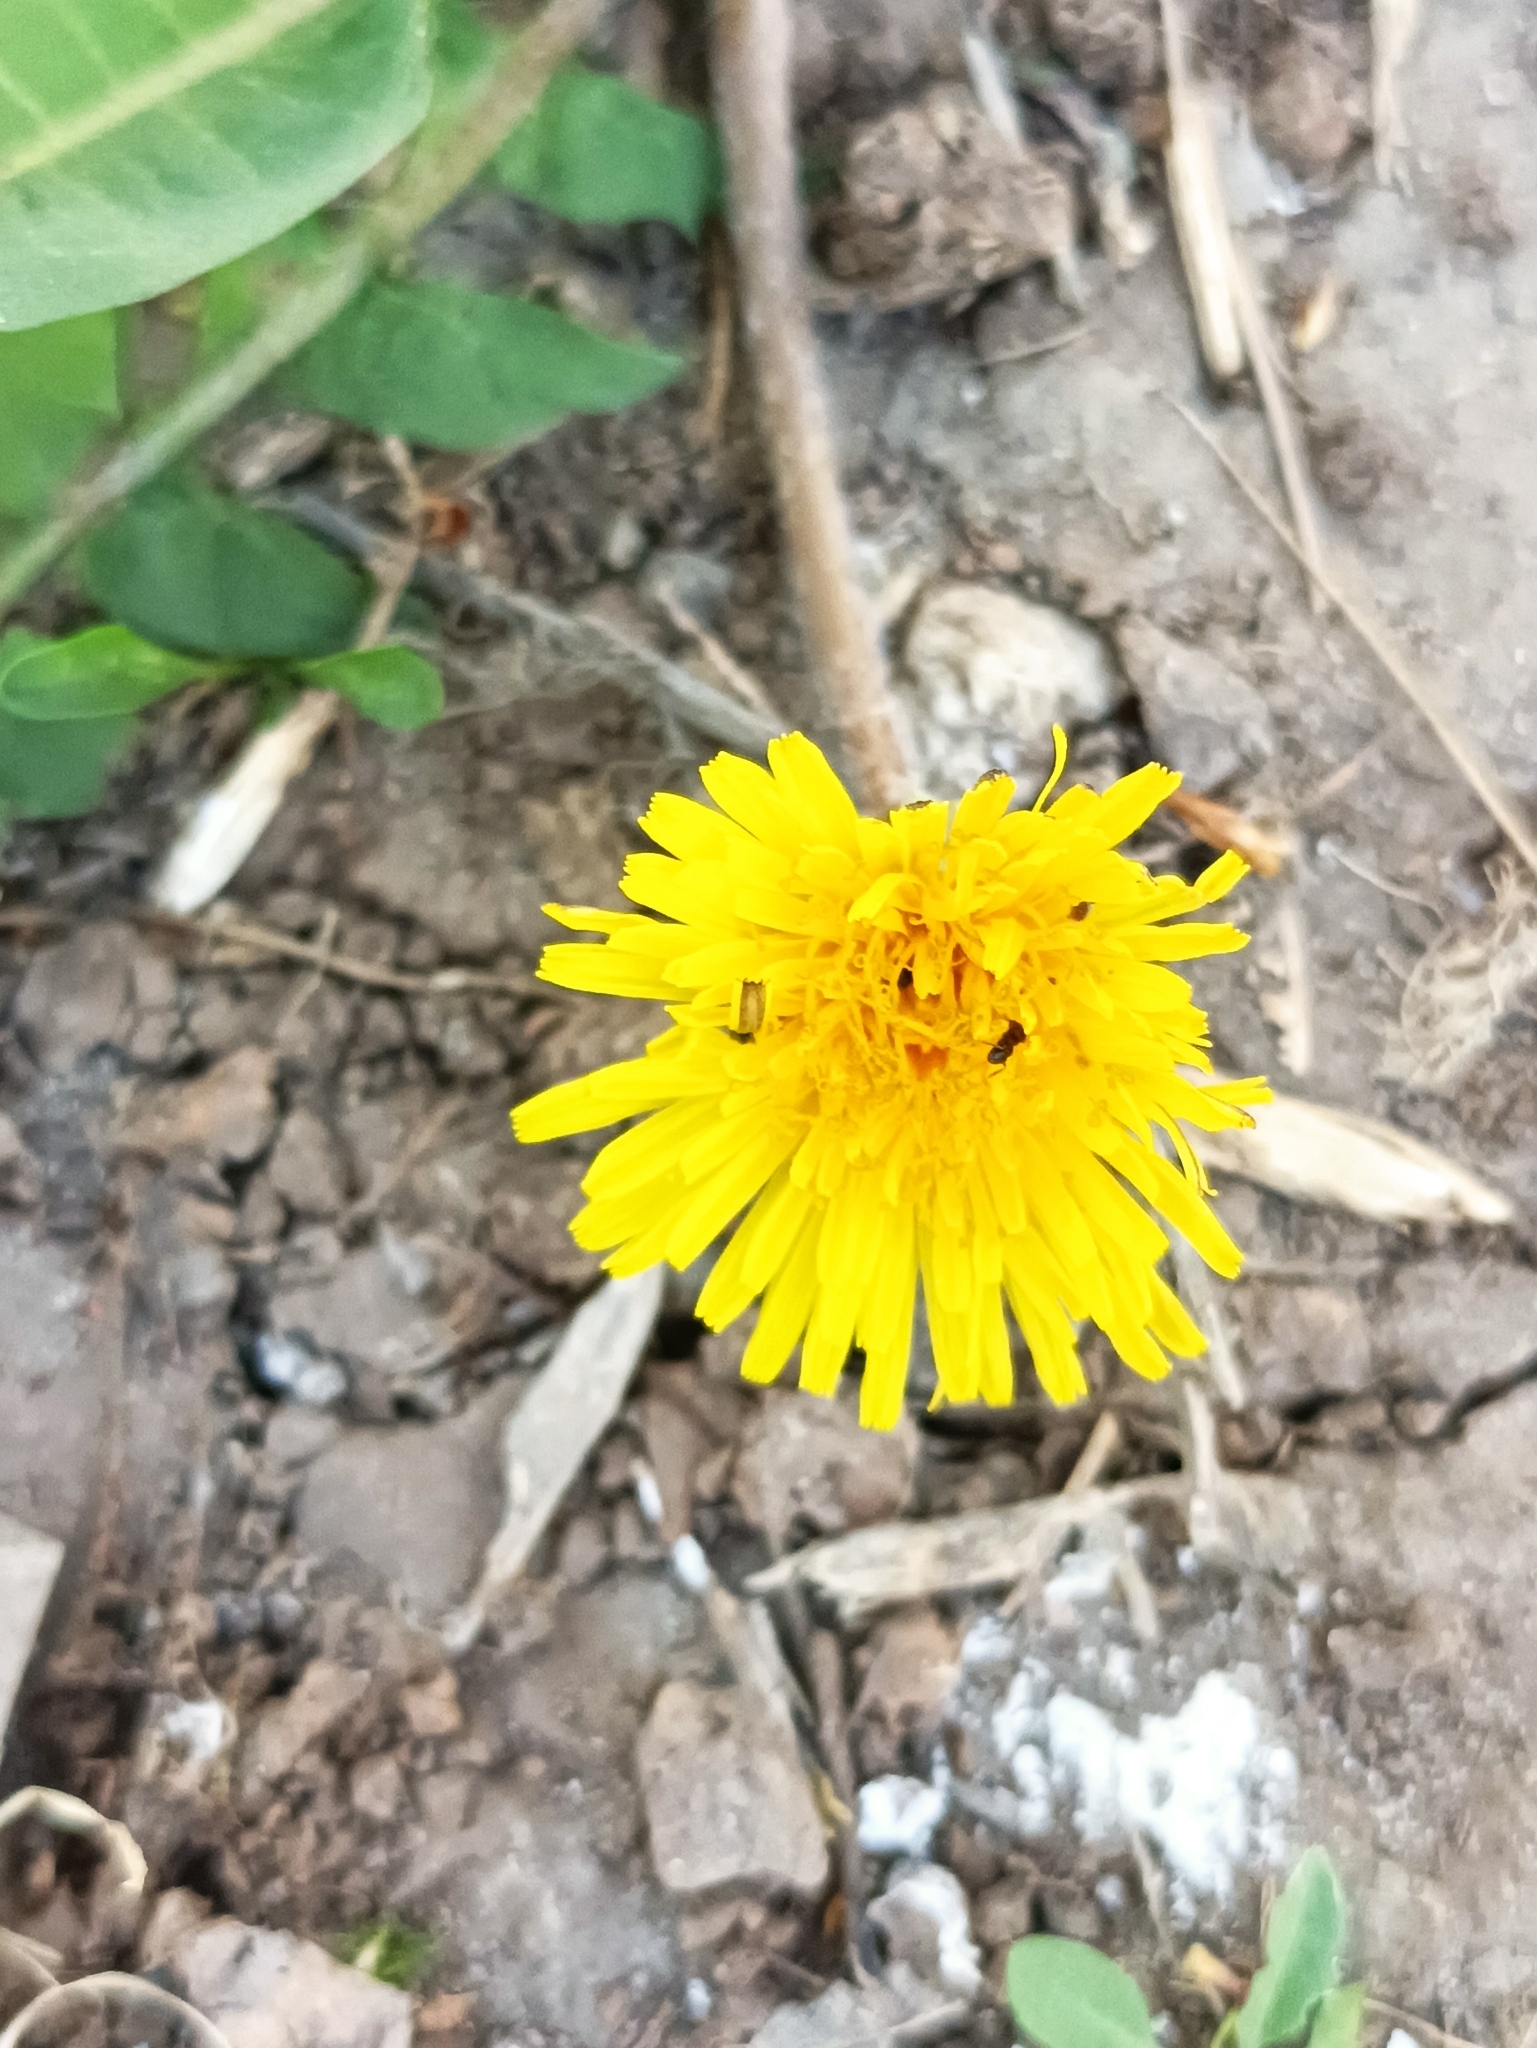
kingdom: Plantae
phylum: Tracheophyta
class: Magnoliopsida
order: Asterales
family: Asteraceae
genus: Taraxacum
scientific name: Taraxacum officinale
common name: Common dandelion
